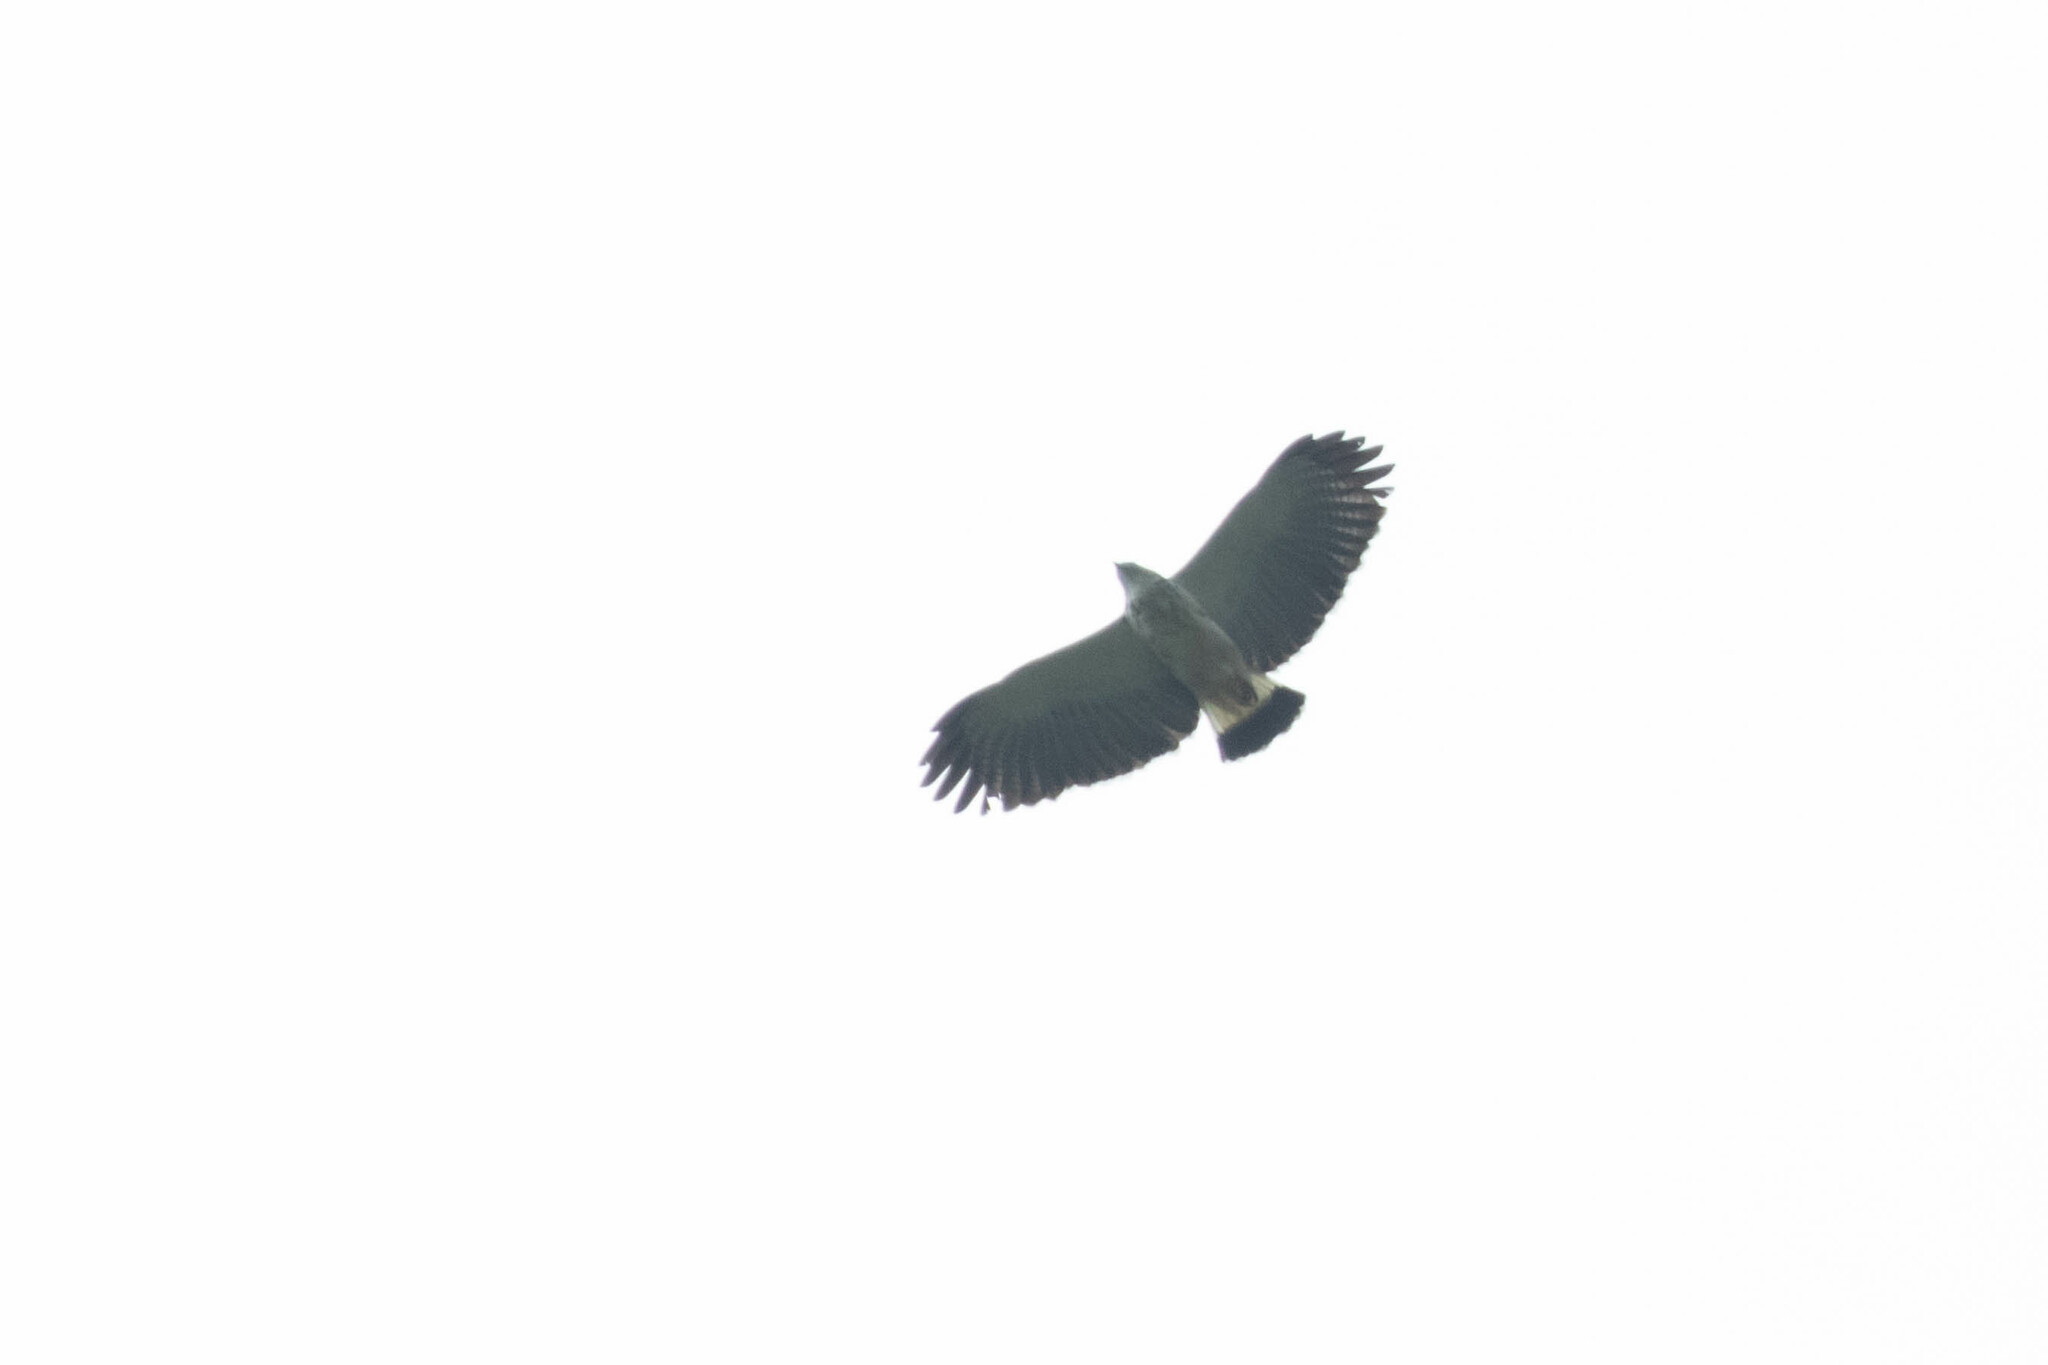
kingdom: Animalia
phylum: Chordata
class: Aves
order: Accipitriformes
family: Accipitridae
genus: Leucopternis
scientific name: Leucopternis occidentalis
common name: Grey-backed hawk
